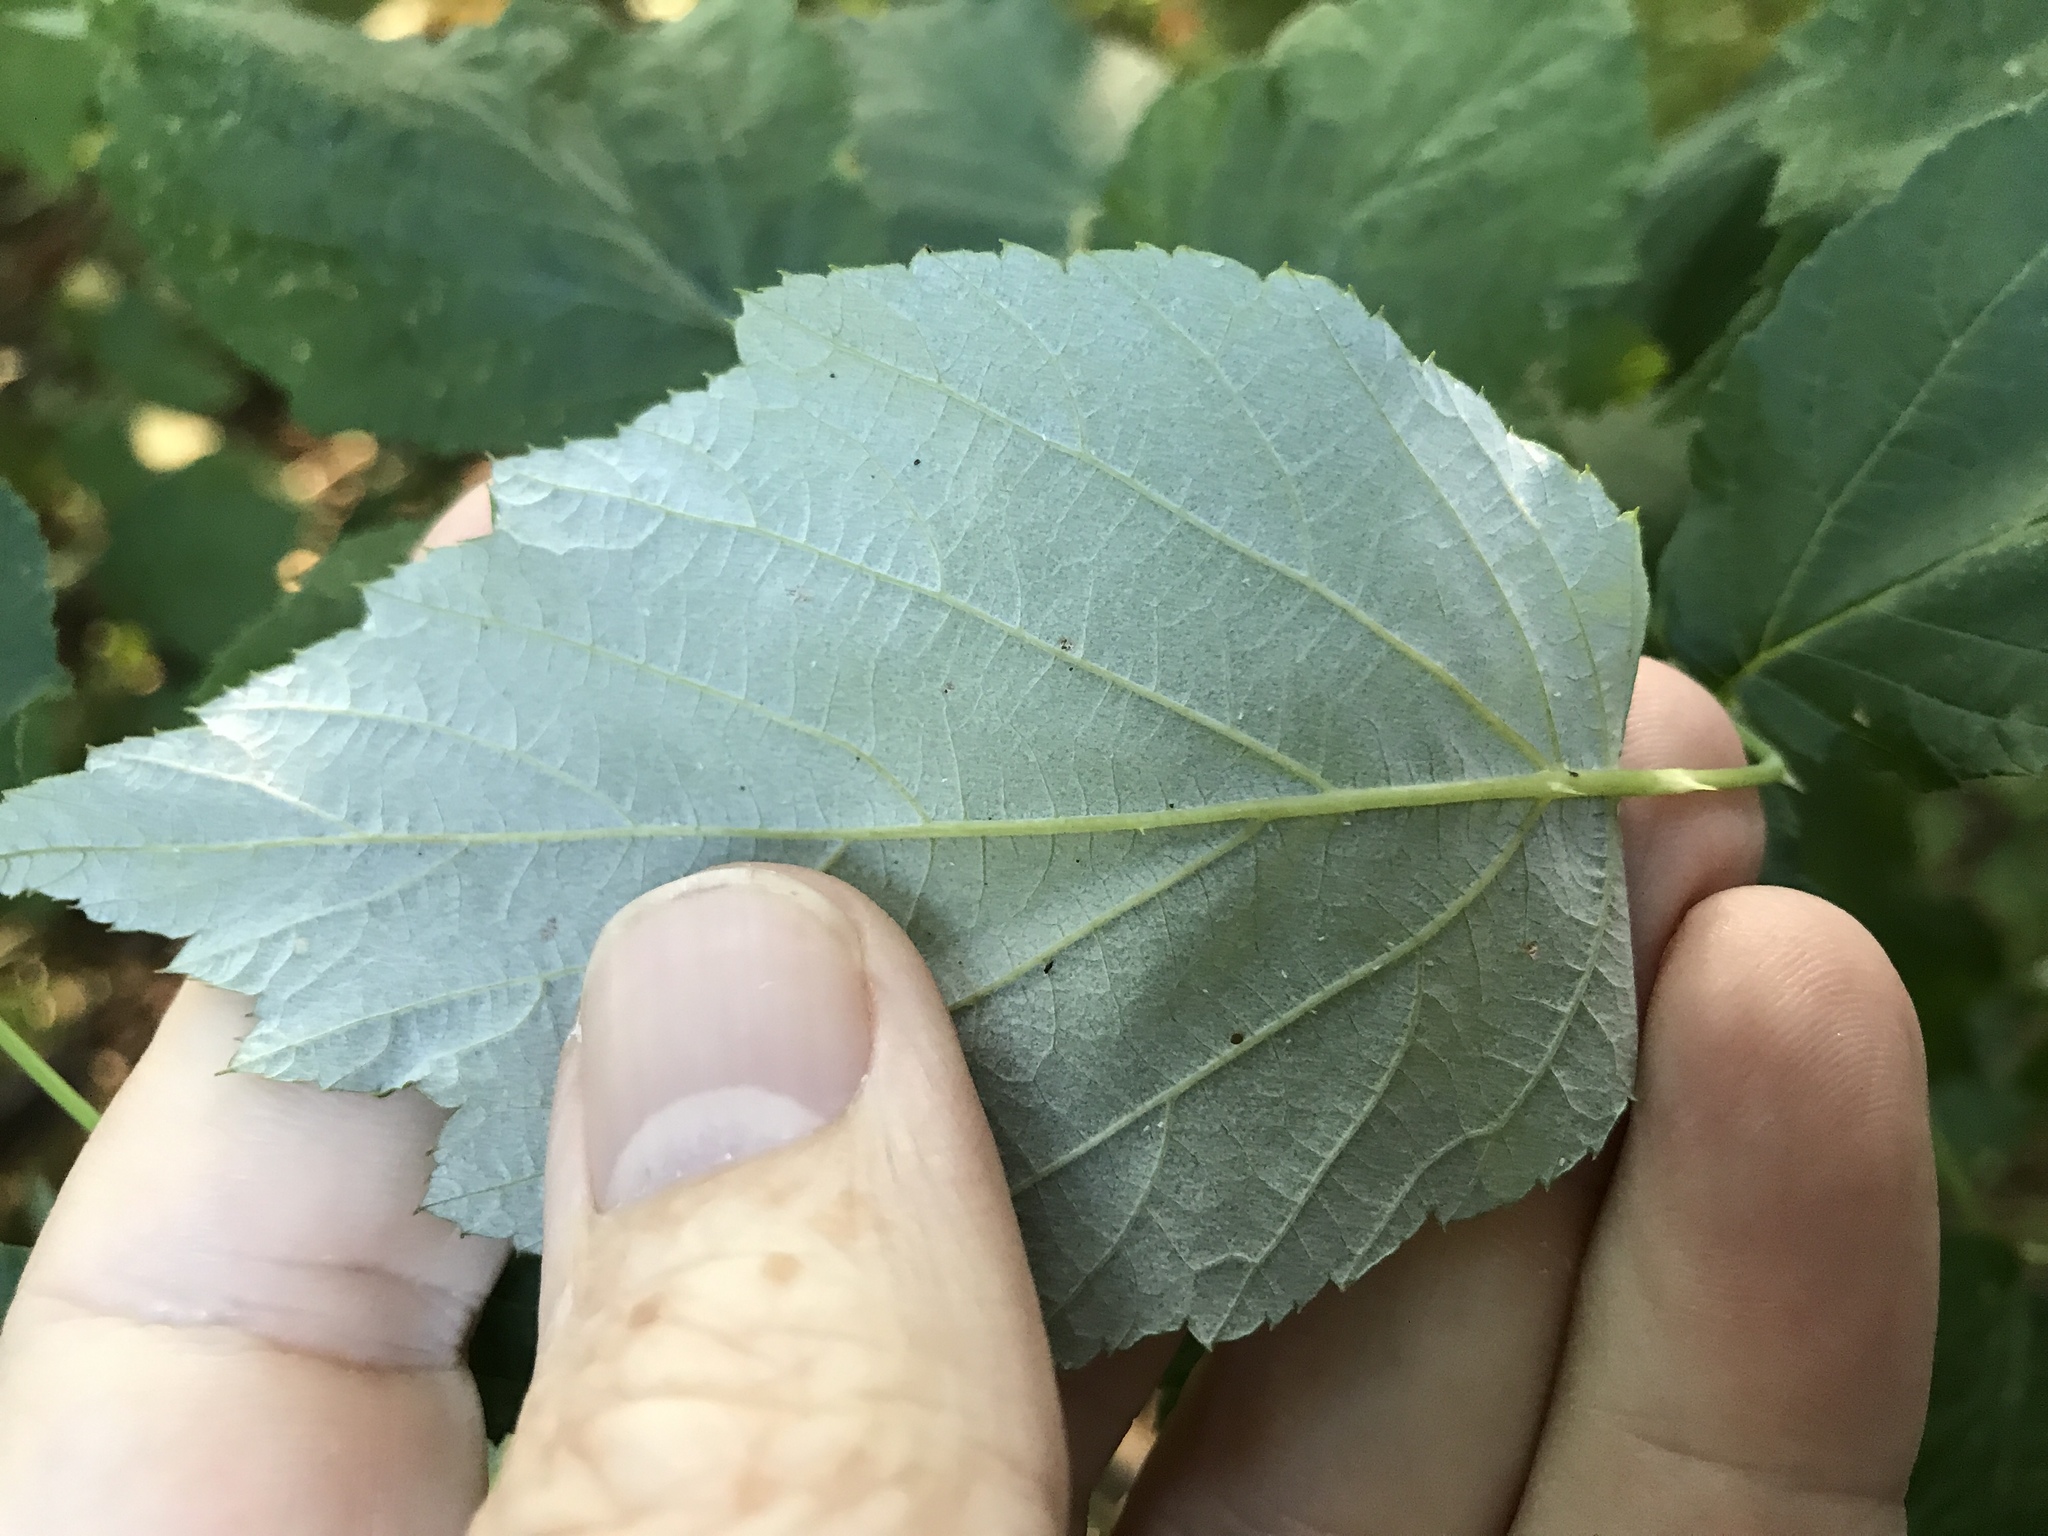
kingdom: Plantae
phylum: Tracheophyta
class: Magnoliopsida
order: Rosales
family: Rosaceae
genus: Rubus
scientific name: Rubus occidentalis
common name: Black raspberry
